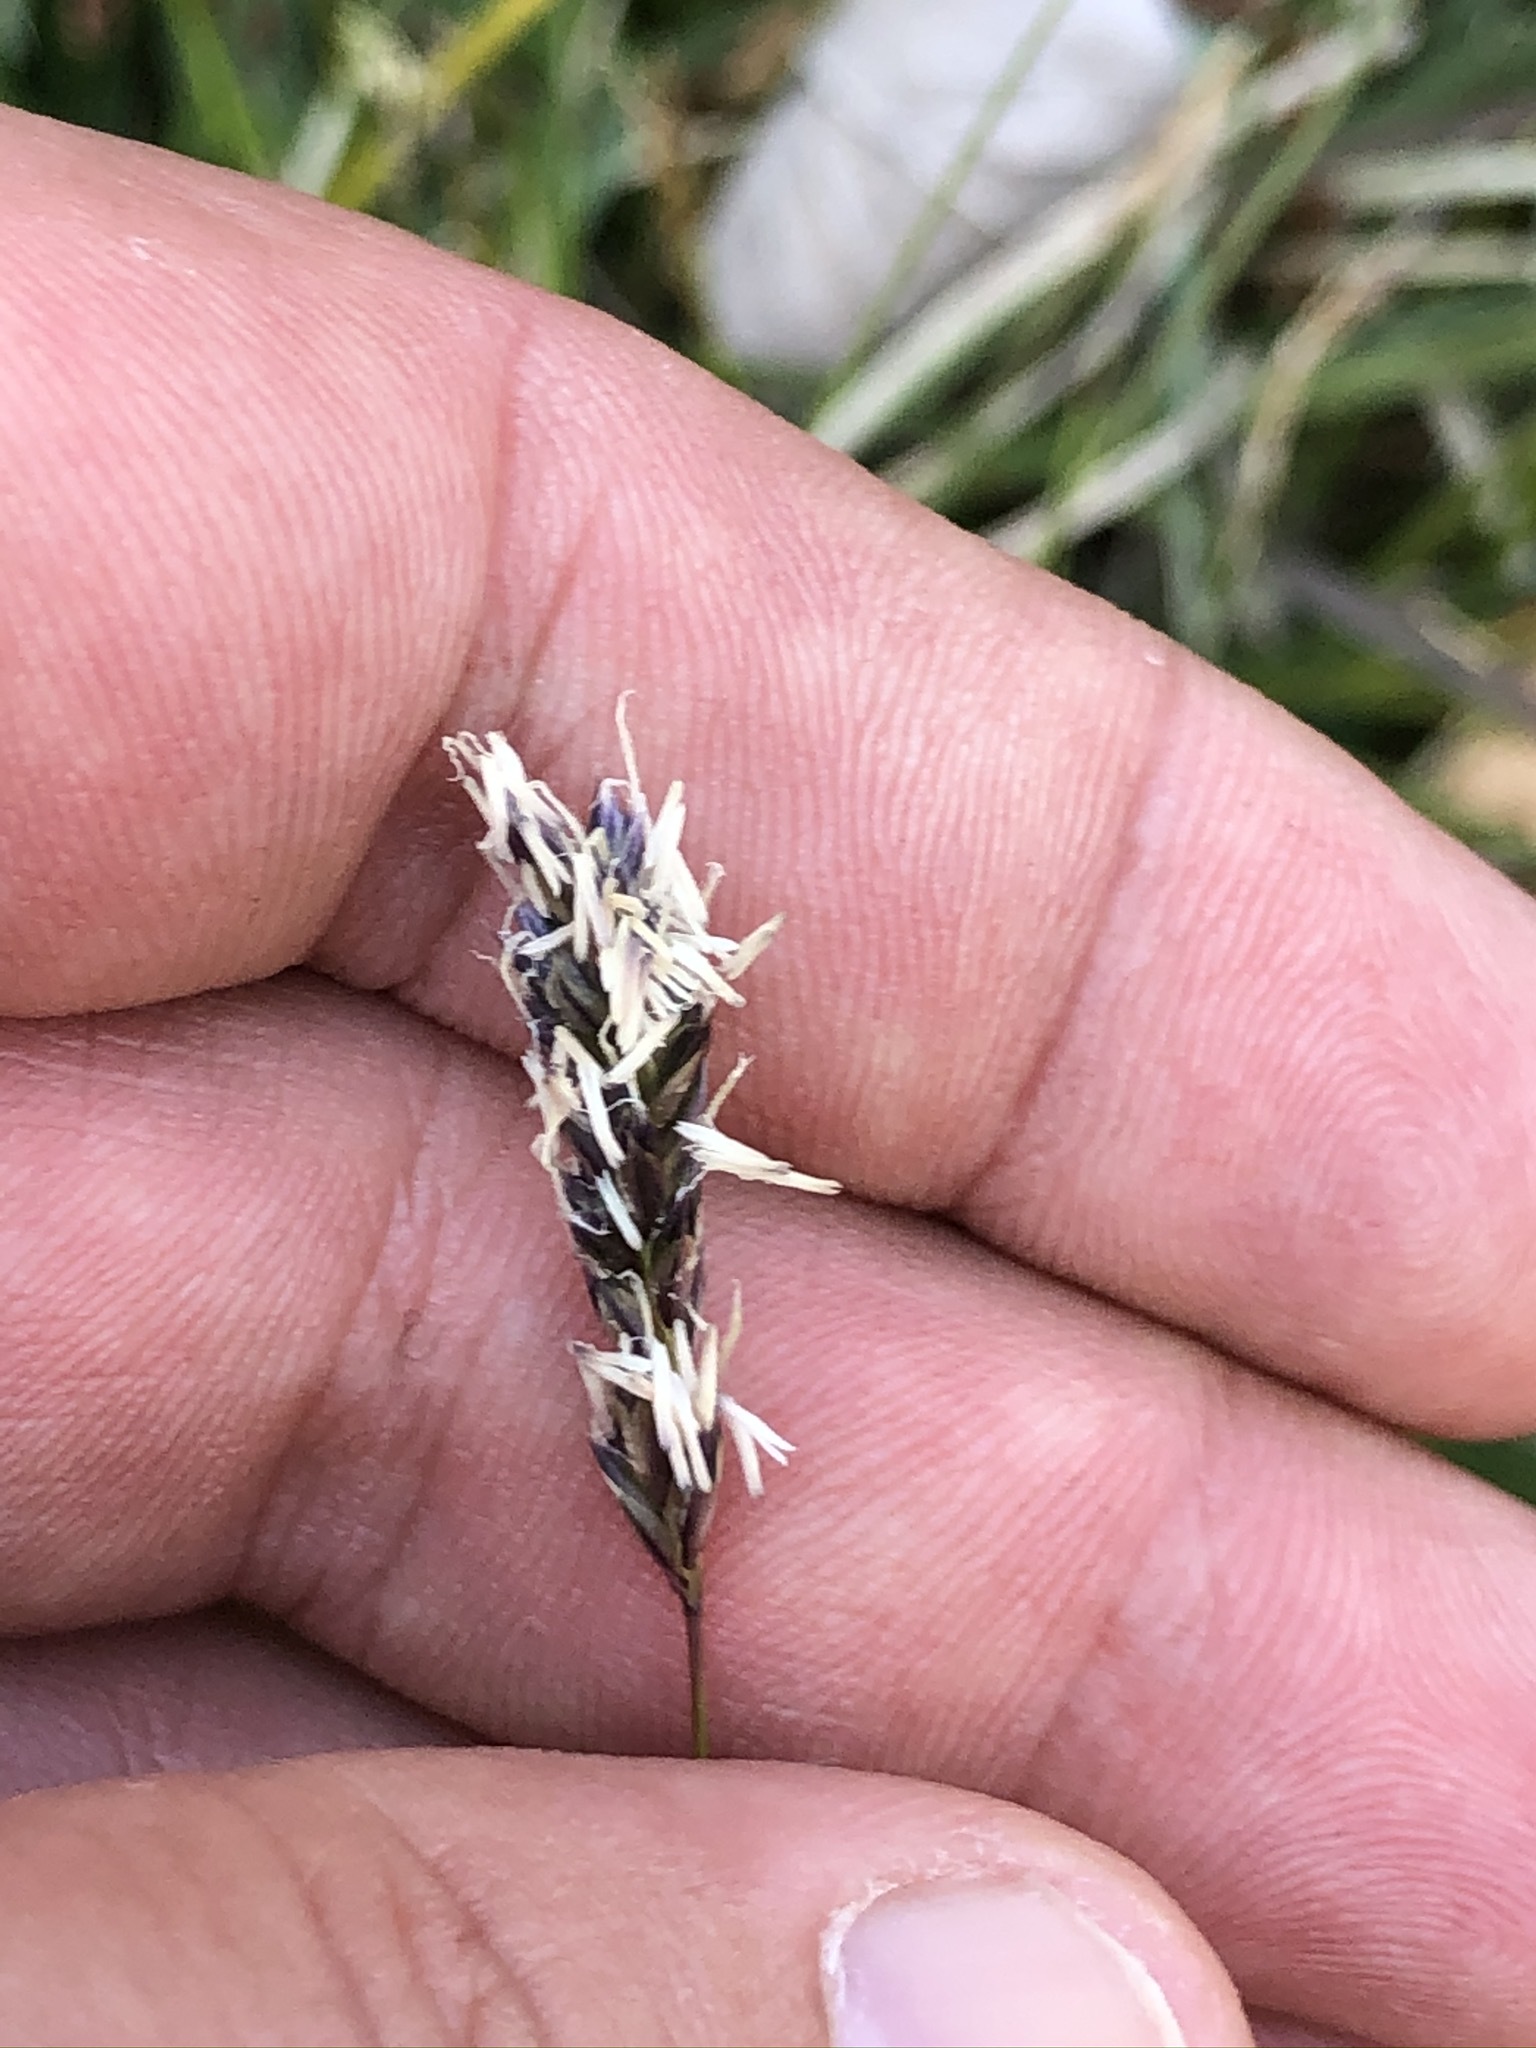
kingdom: Plantae
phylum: Tracheophyta
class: Liliopsida
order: Poales
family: Poaceae
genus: Sesleria
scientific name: Sesleria caerulea
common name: Blue moor-grass
